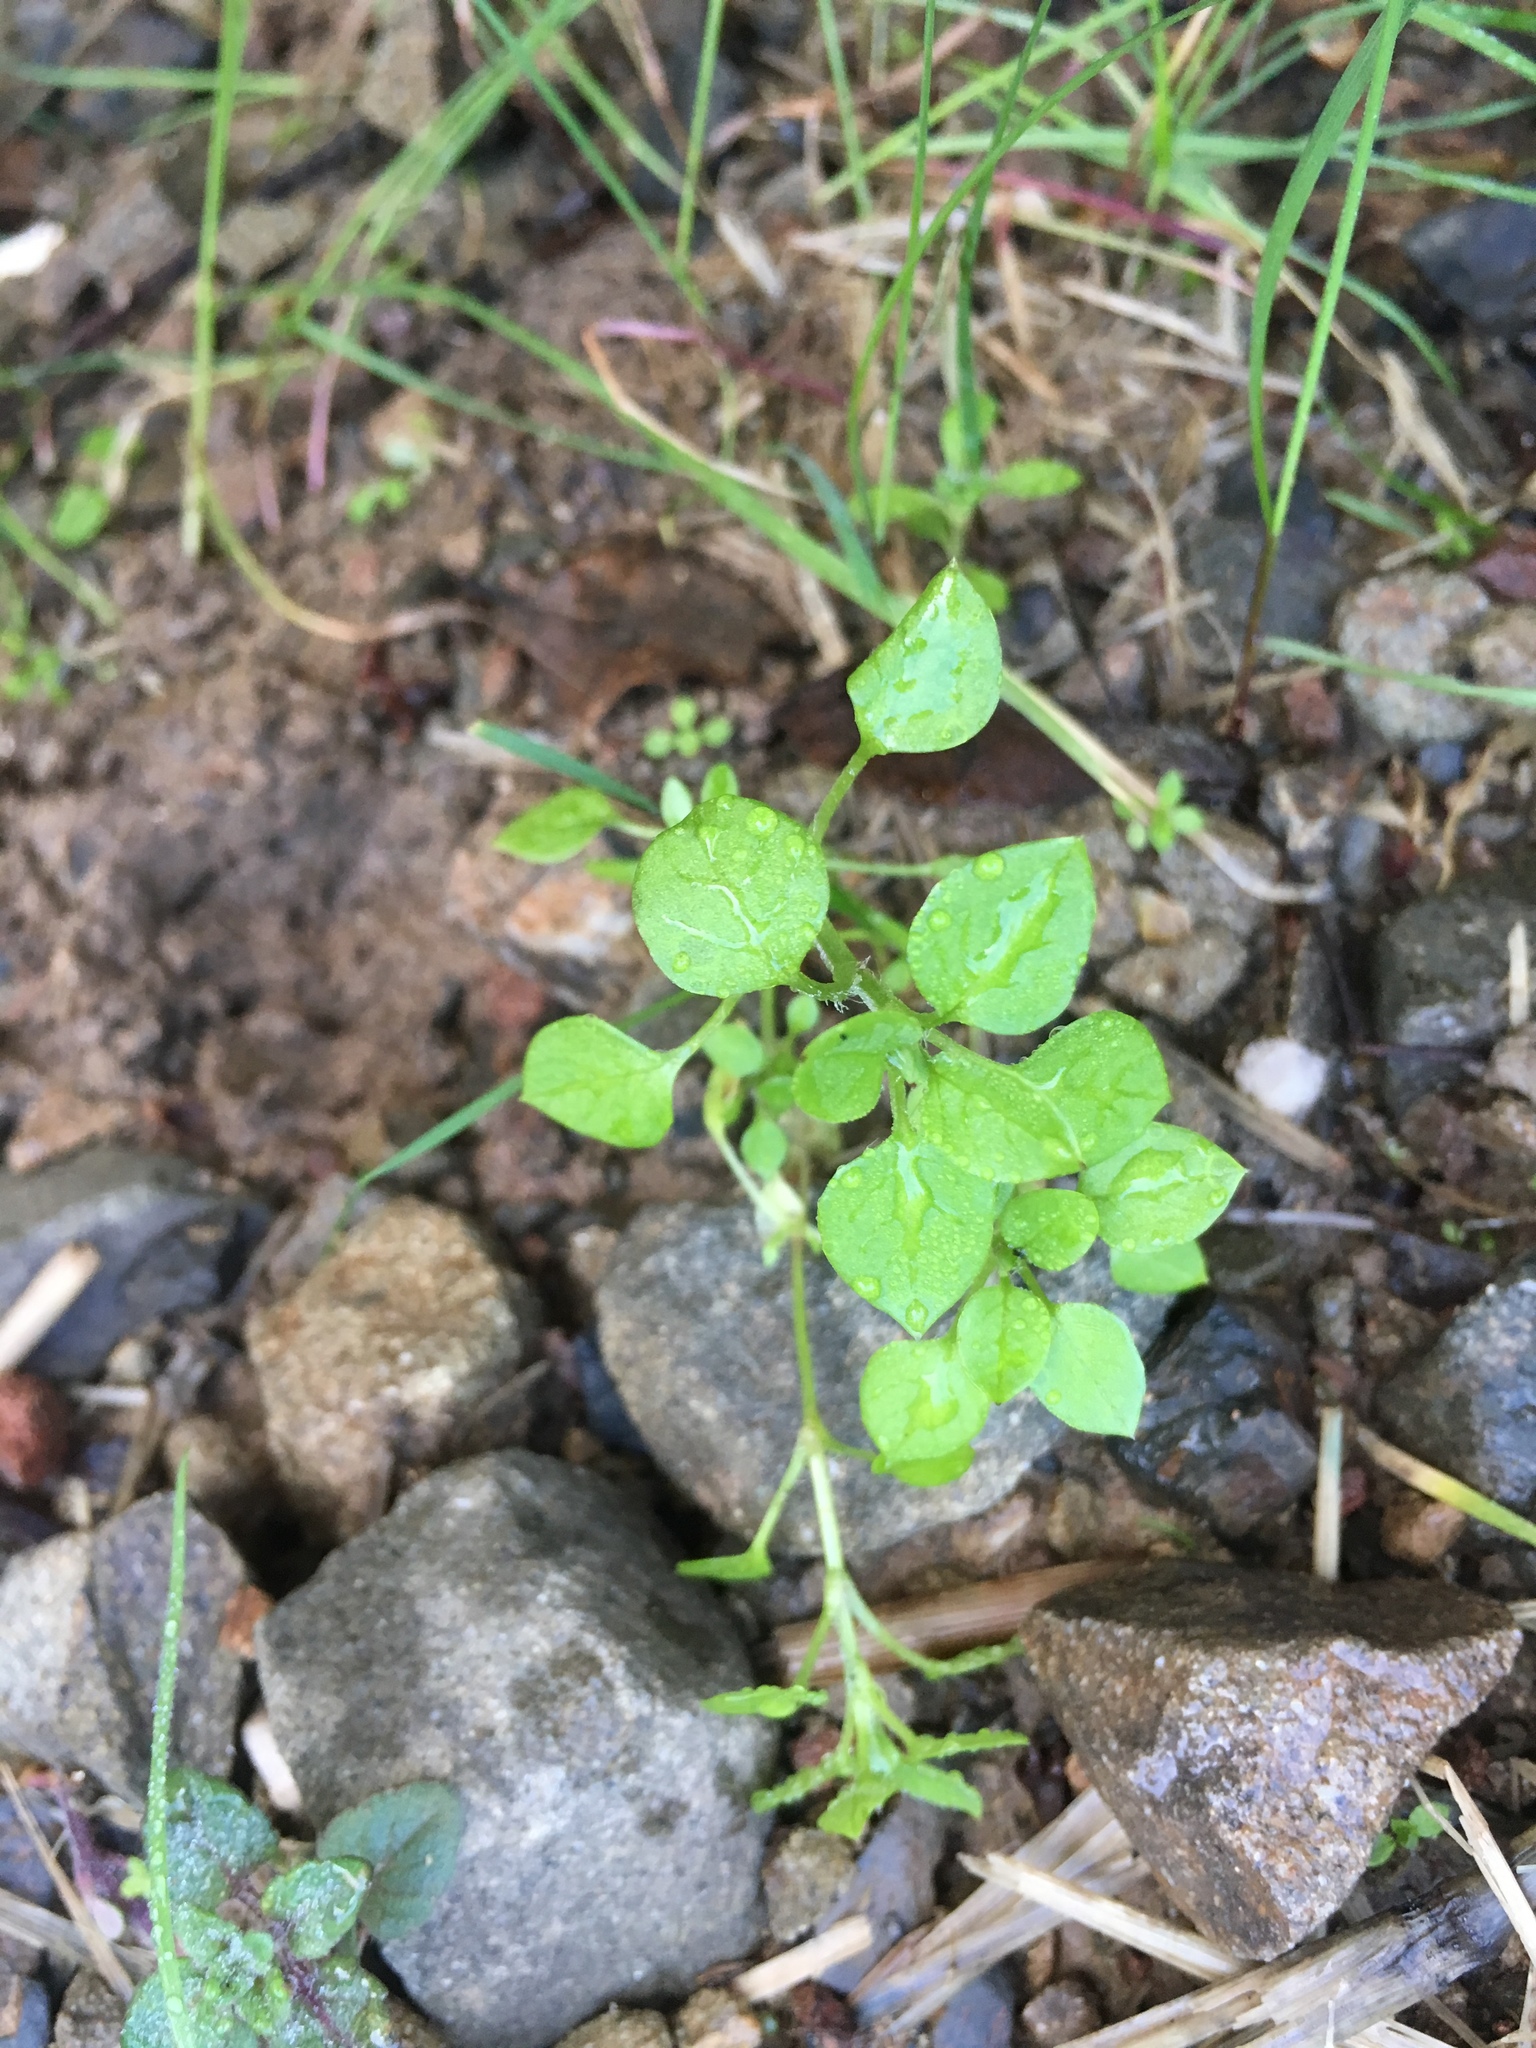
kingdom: Plantae
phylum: Tracheophyta
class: Magnoliopsida
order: Caryophyllales
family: Caryophyllaceae
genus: Stellaria
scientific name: Stellaria media
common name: Common chickweed
